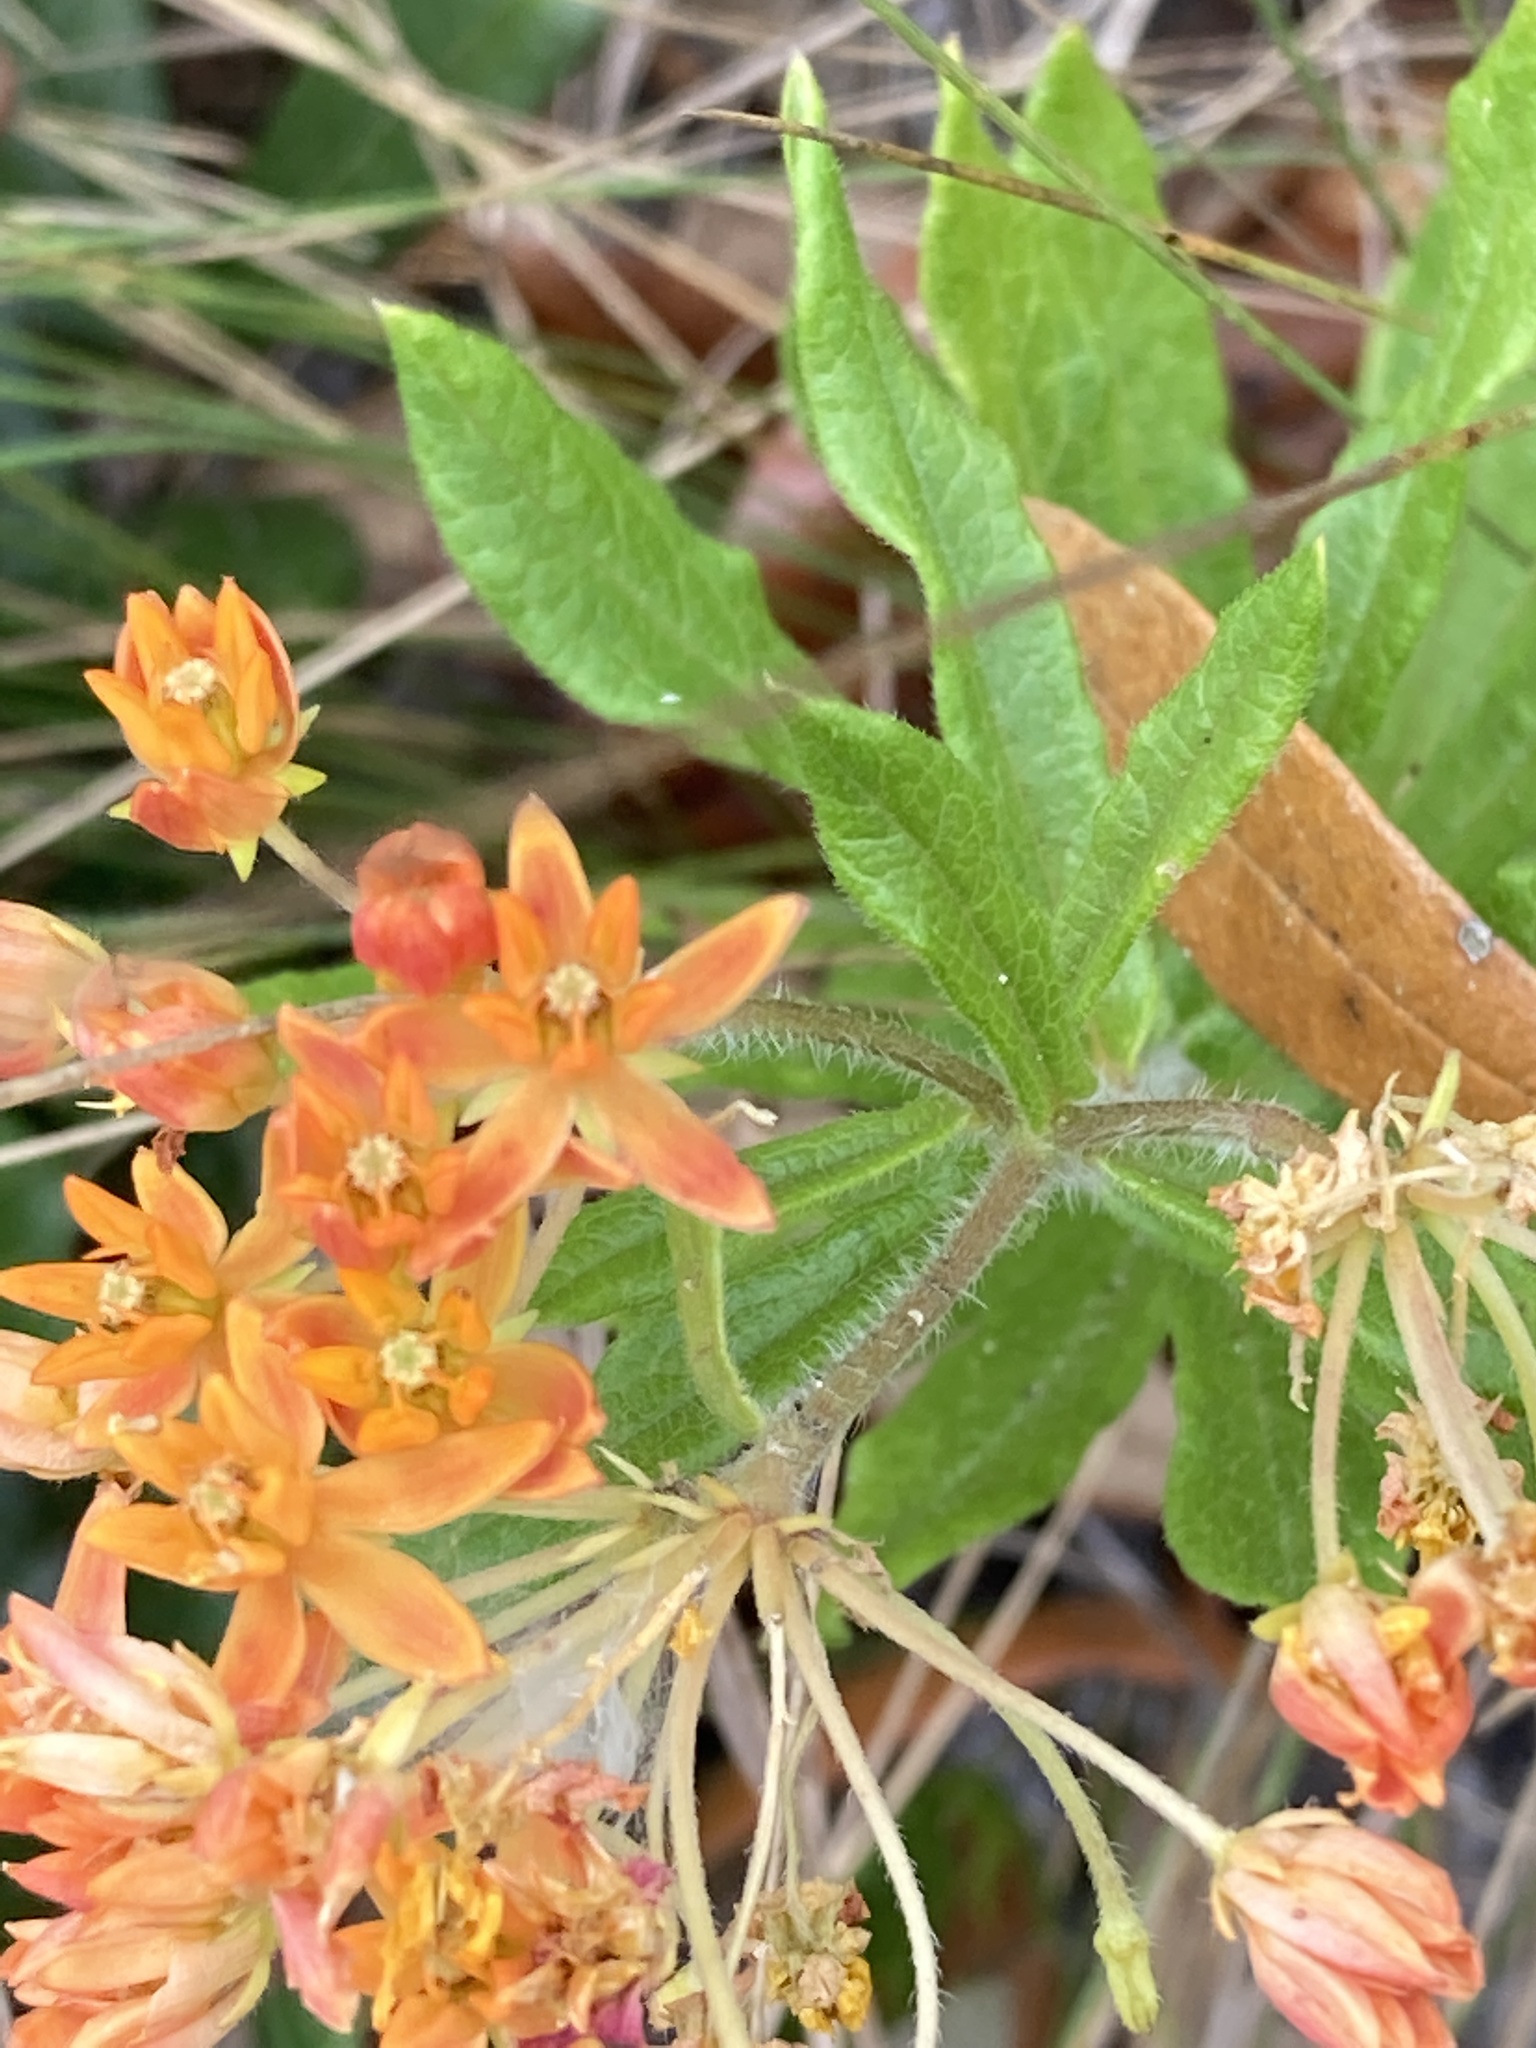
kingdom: Plantae
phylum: Tracheophyta
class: Magnoliopsida
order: Gentianales
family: Apocynaceae
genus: Asclepias
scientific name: Asclepias tuberosa
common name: Butterfly milkweed
